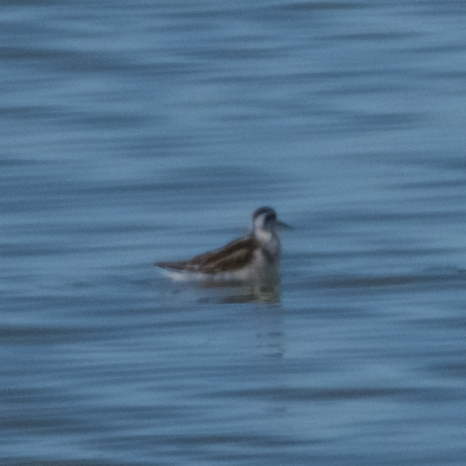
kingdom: Animalia
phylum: Chordata
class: Aves
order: Charadriiformes
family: Scolopacidae
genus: Phalaropus
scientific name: Phalaropus lobatus
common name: Red-necked phalarope
